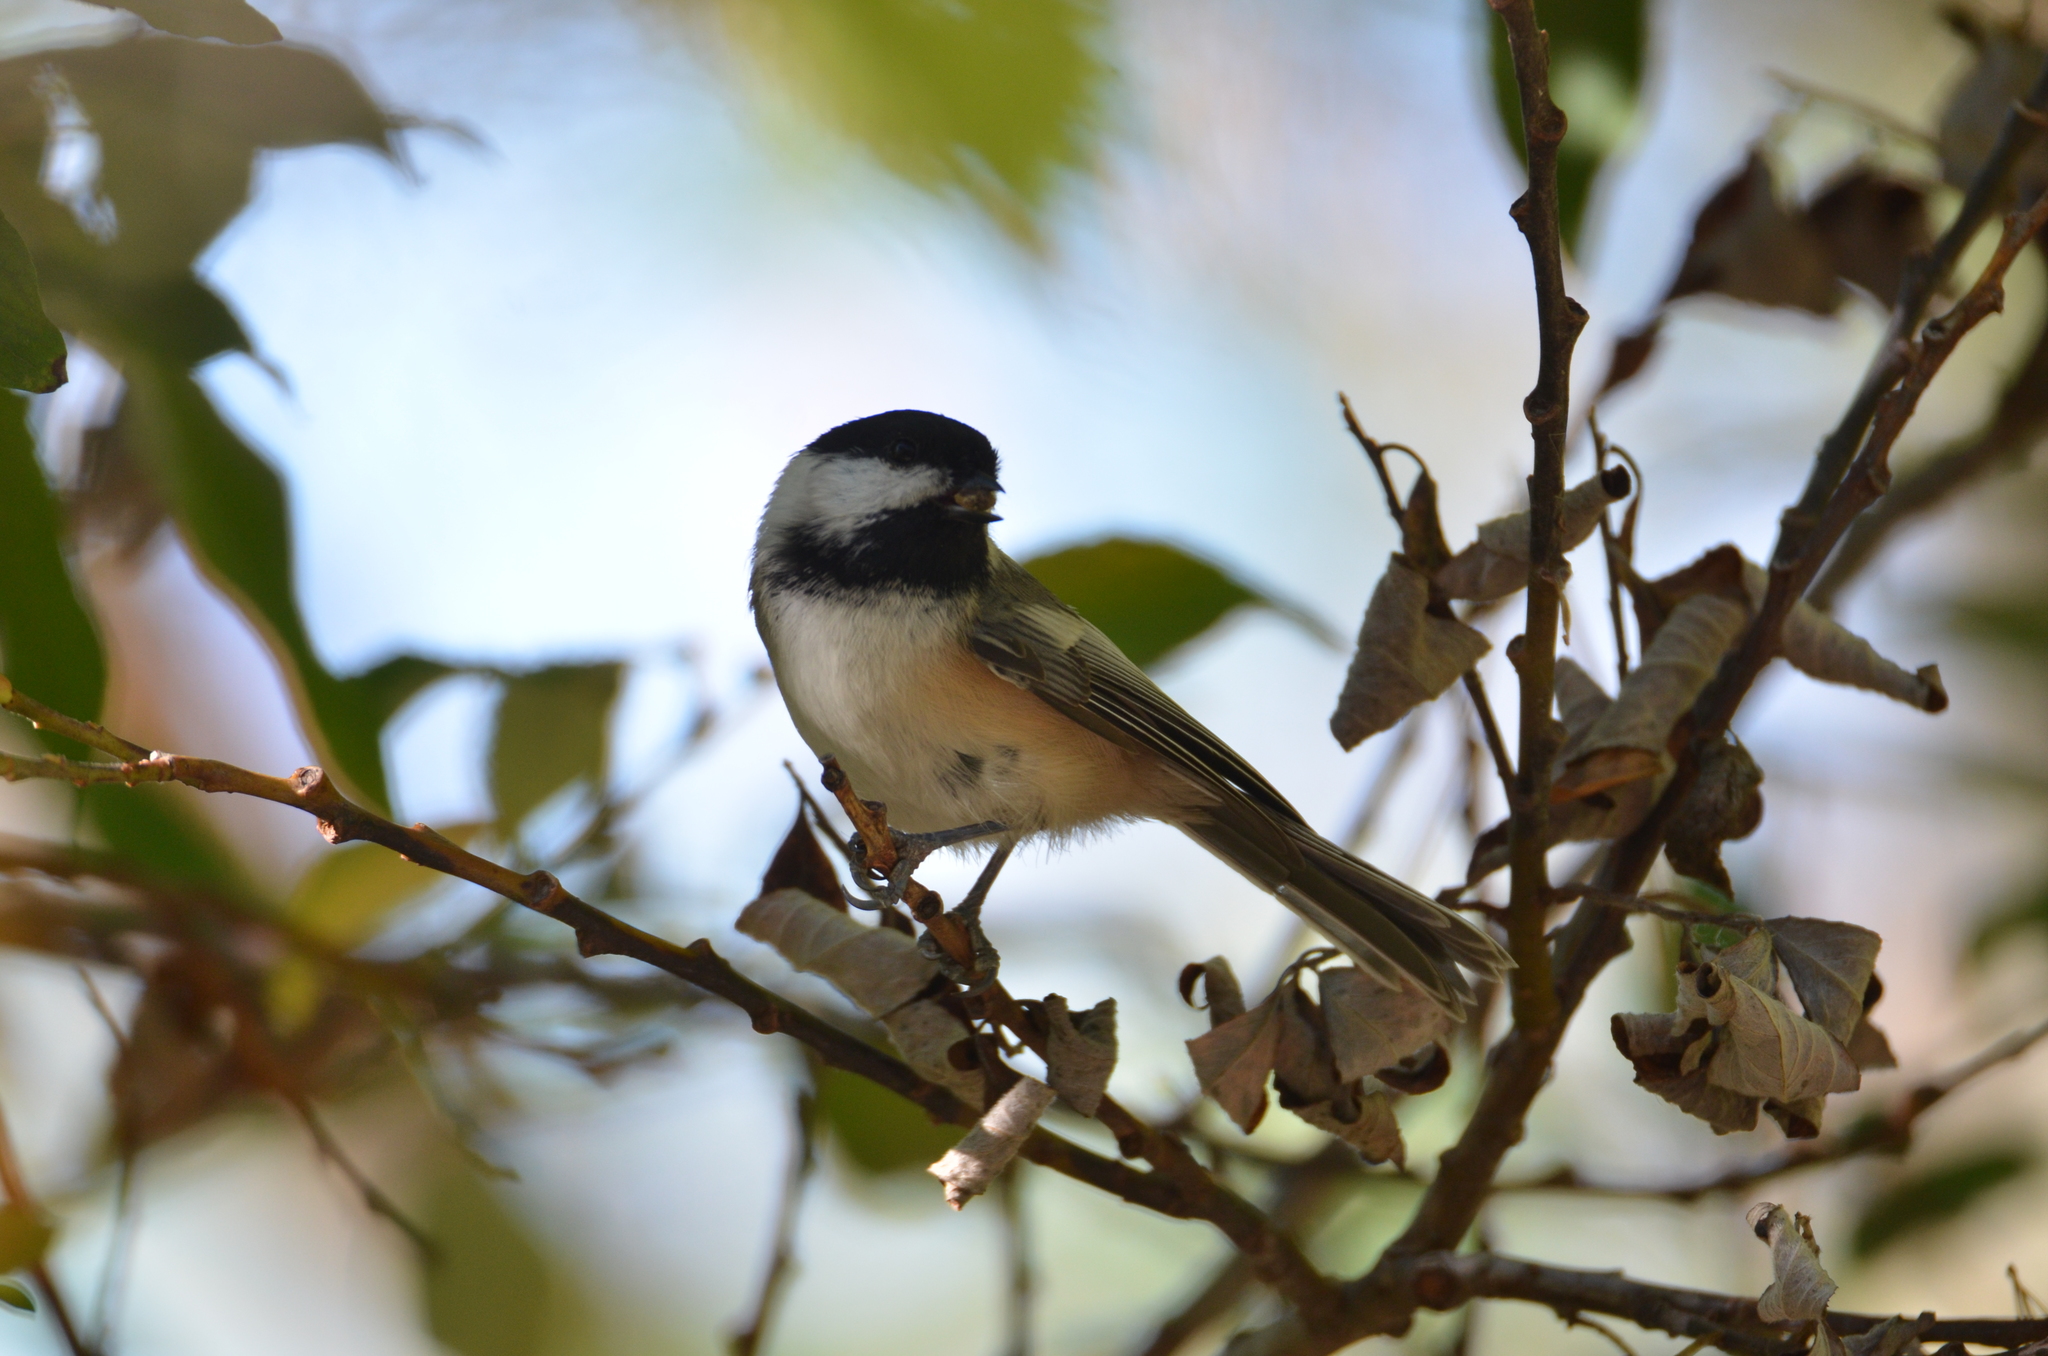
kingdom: Animalia
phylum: Chordata
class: Aves
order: Passeriformes
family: Paridae
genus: Poecile
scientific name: Poecile atricapillus
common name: Black-capped chickadee
